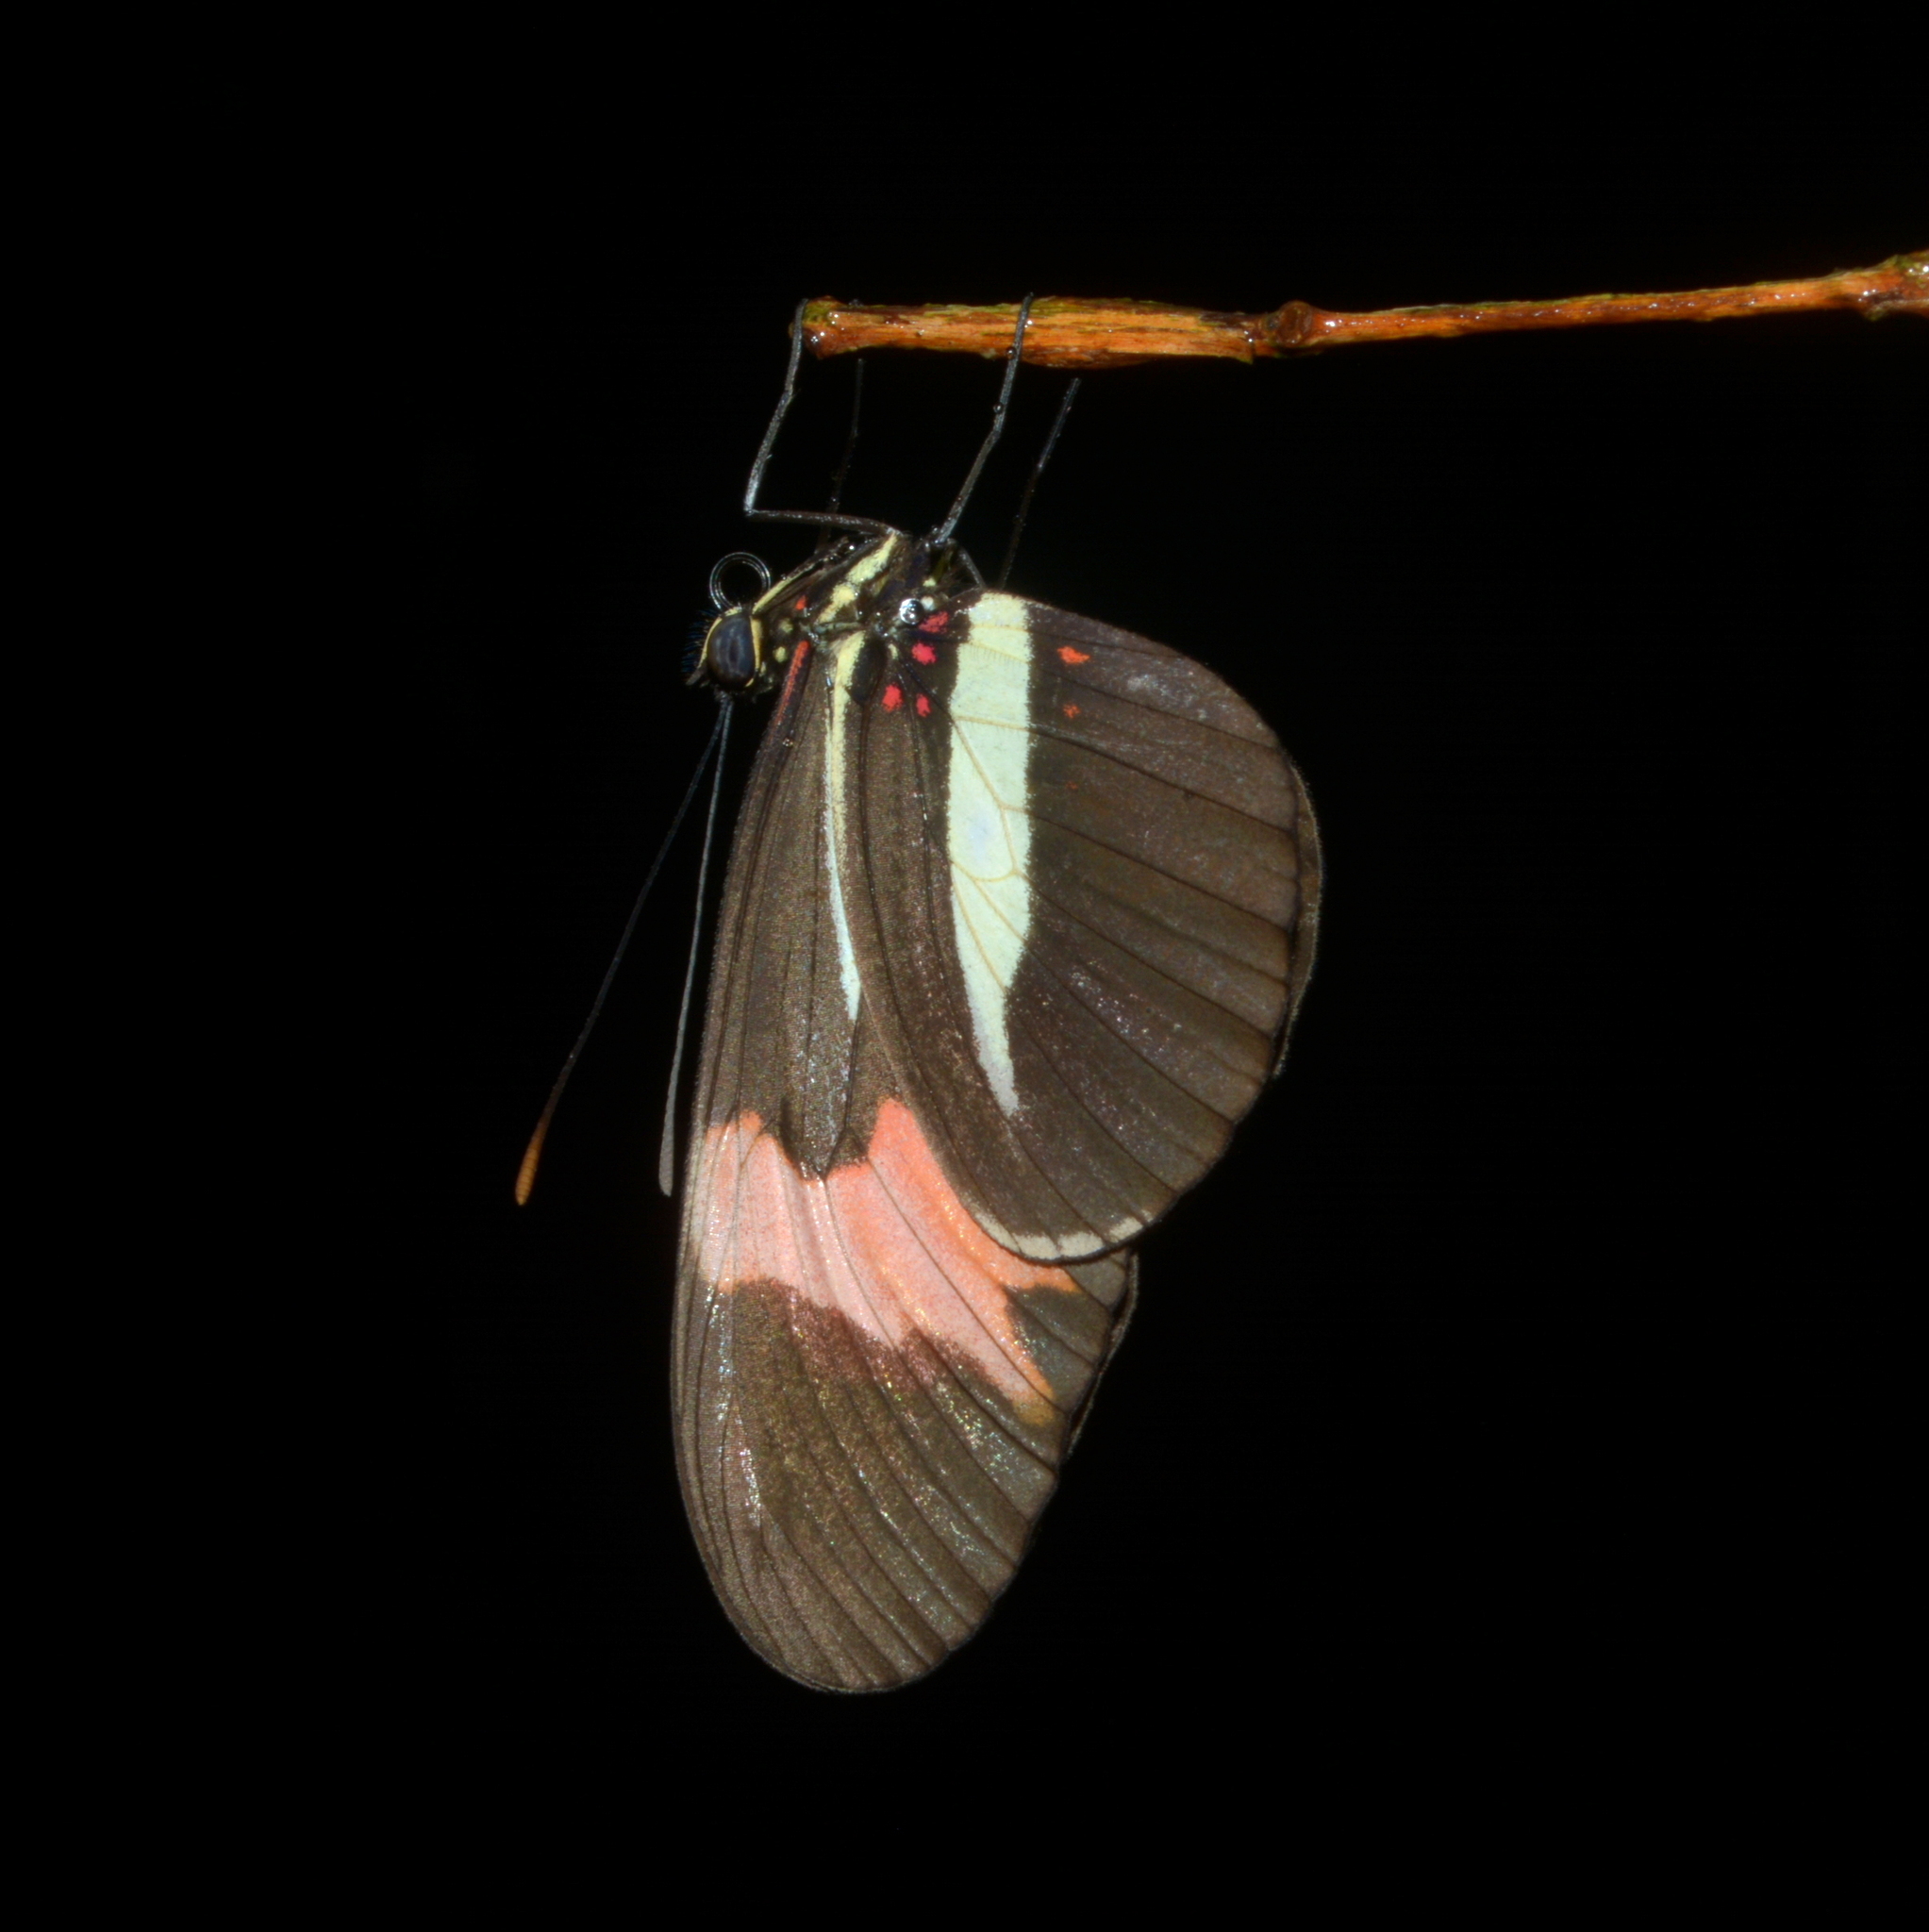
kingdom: Animalia
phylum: Arthropoda
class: Insecta
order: Lepidoptera
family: Nymphalidae
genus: Heliconius
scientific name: Heliconius erato
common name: Common patch longwing
